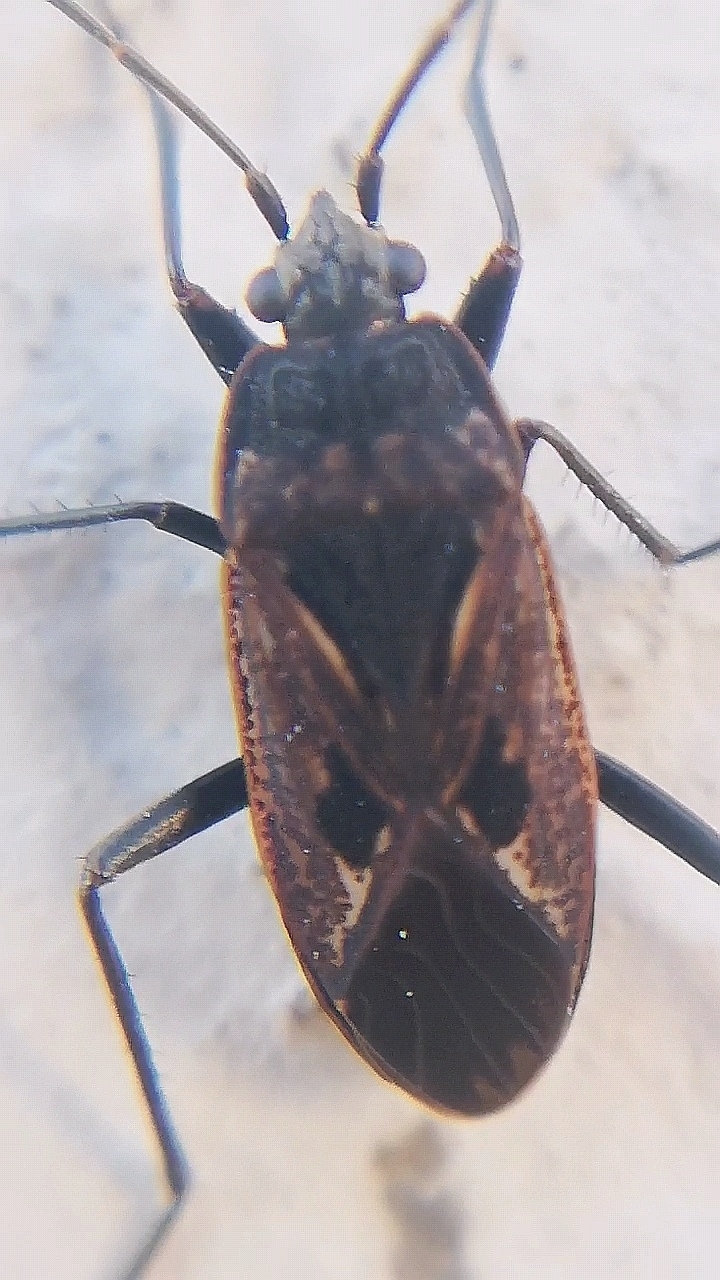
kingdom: Animalia
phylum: Arthropoda
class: Insecta
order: Hemiptera
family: Rhyparochromidae
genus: Rhyparochromus
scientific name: Rhyparochromus pini
